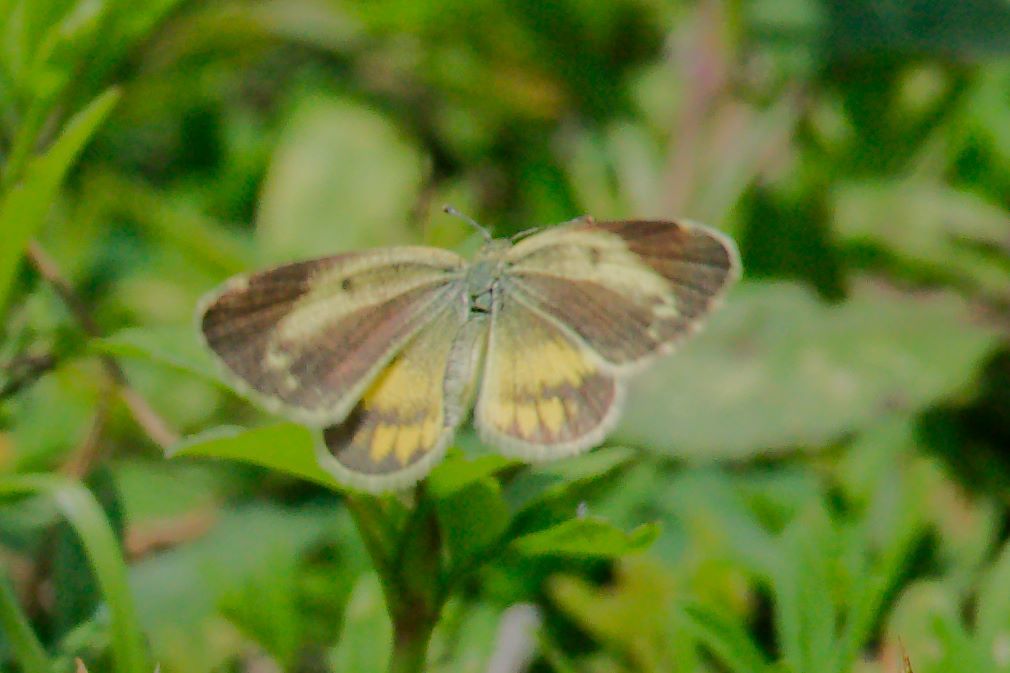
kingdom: Animalia
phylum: Arthropoda
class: Insecta
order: Lepidoptera
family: Pieridae
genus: Nathalis
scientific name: Nathalis iole
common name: Dainty sulphur
